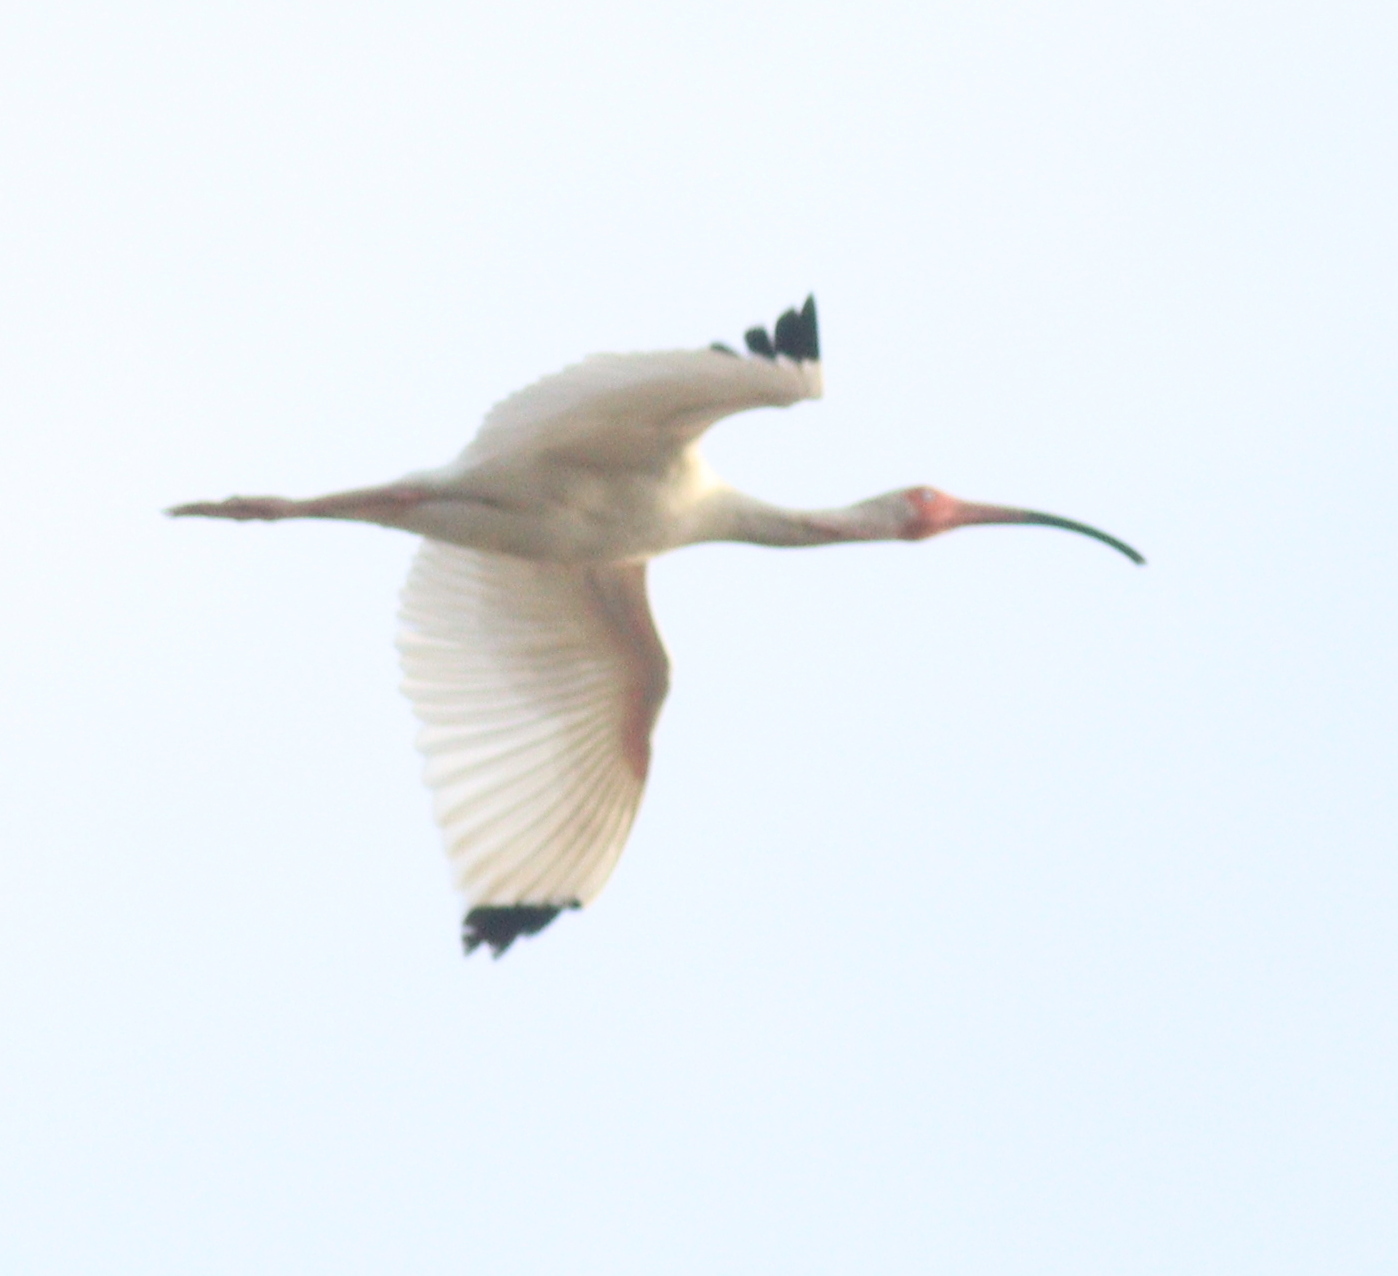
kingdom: Animalia
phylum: Chordata
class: Aves
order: Pelecaniformes
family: Threskiornithidae
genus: Eudocimus
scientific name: Eudocimus albus
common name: White ibis
